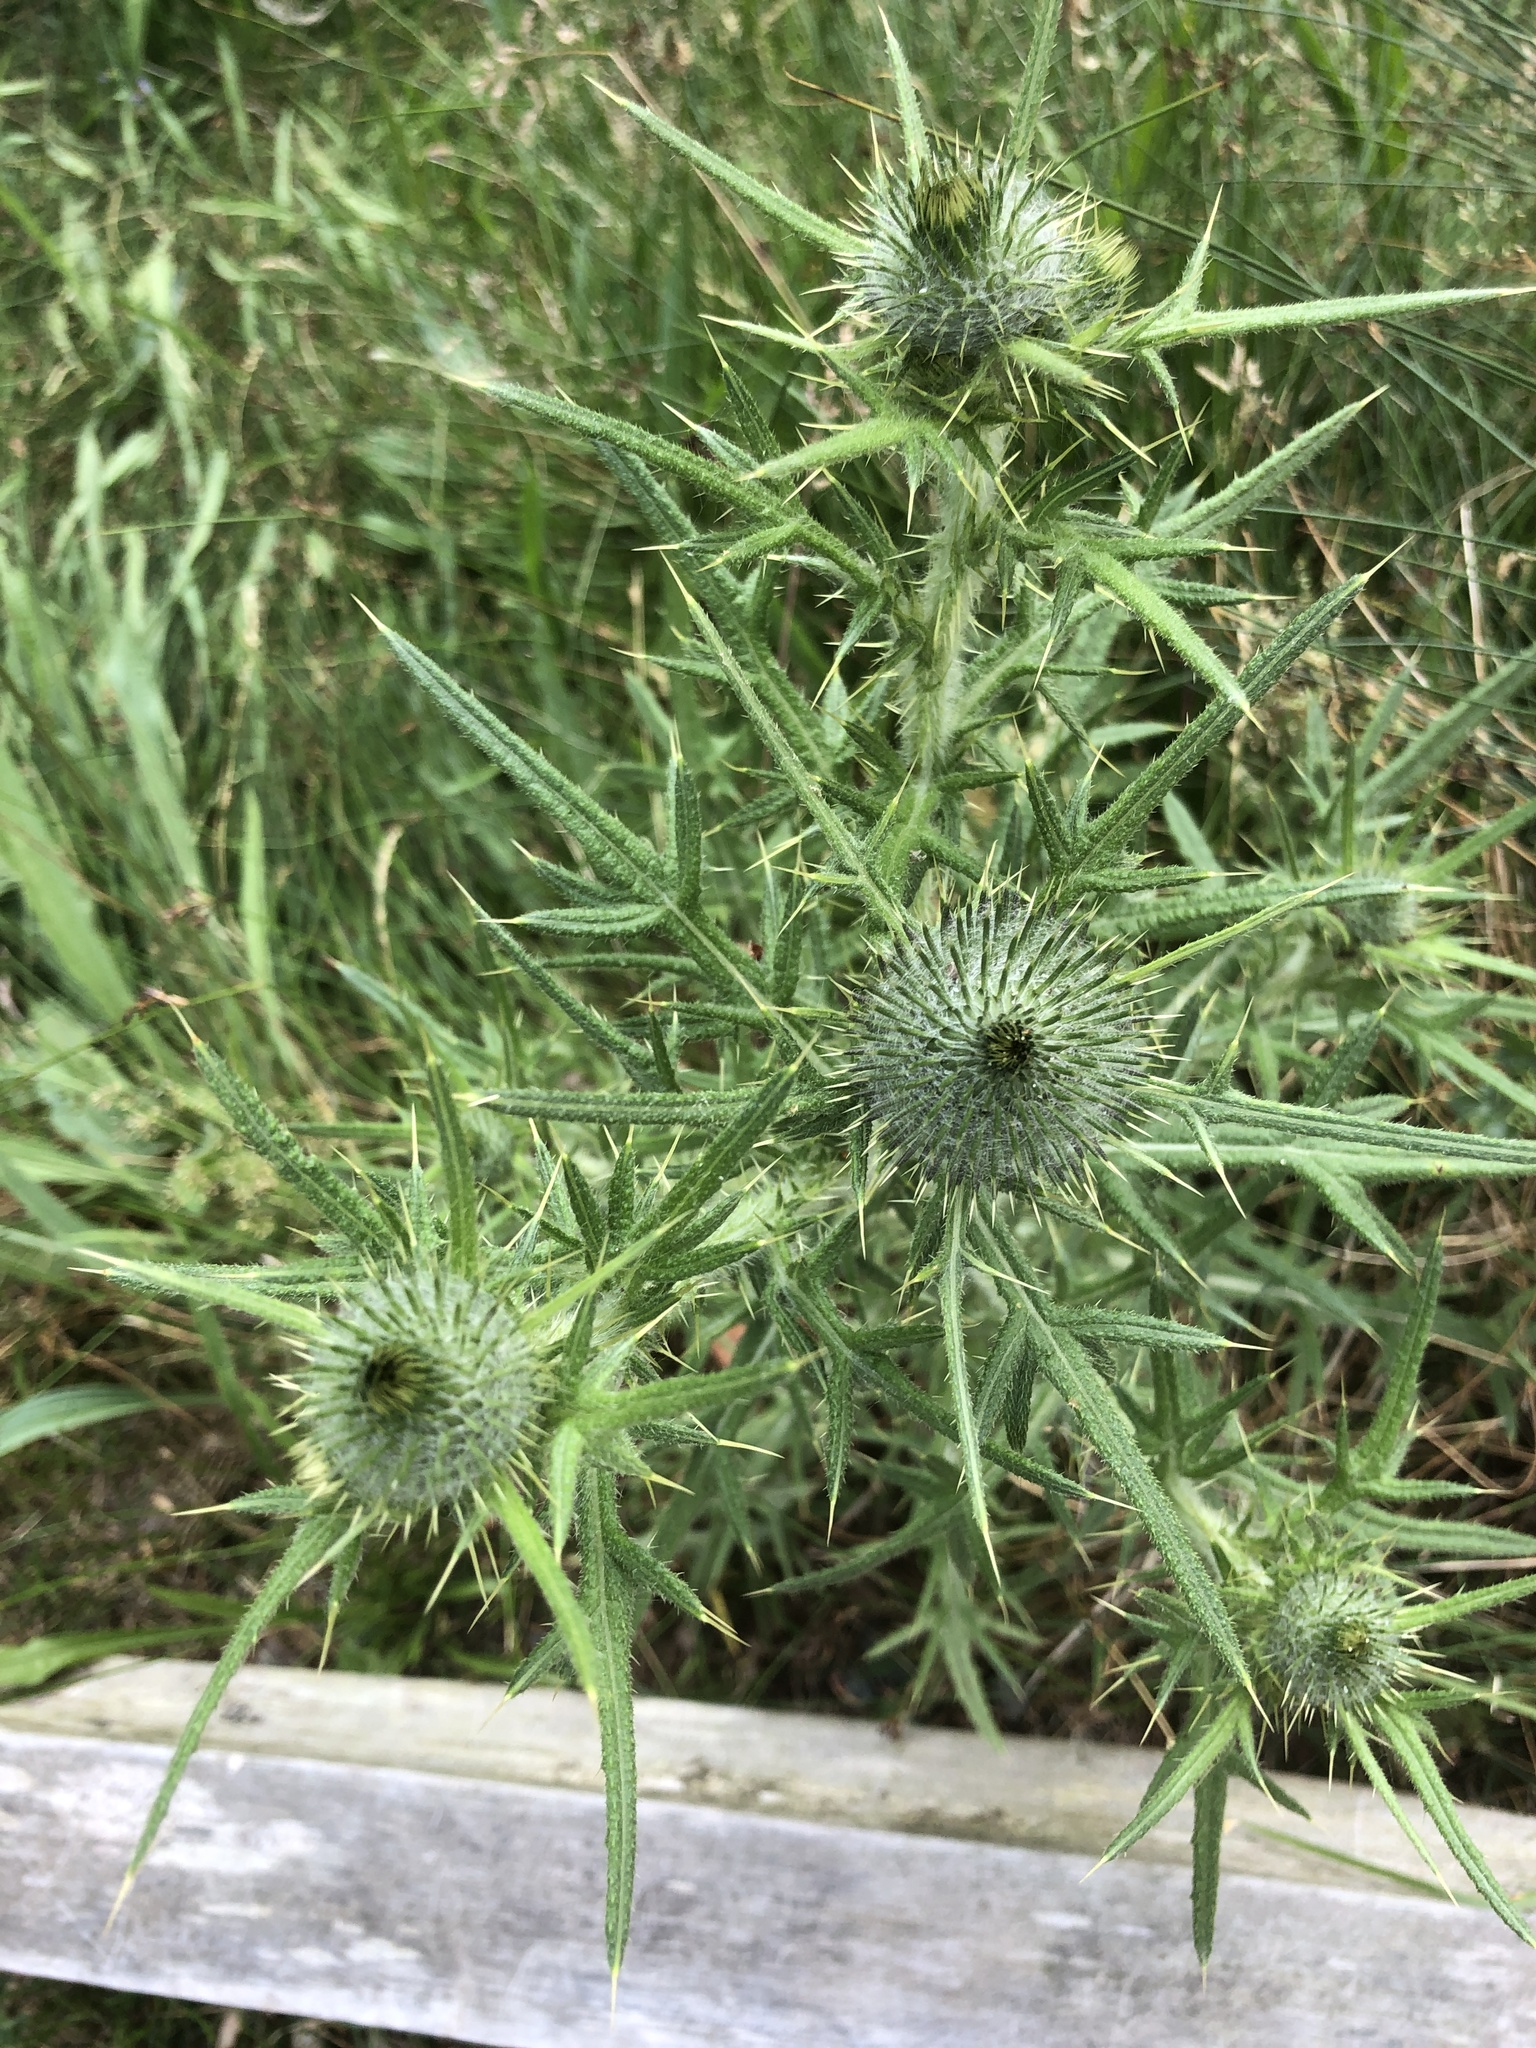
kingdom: Plantae
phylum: Tracheophyta
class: Magnoliopsida
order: Asterales
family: Asteraceae
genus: Cirsium
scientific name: Cirsium vulgare
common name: Bull thistle
